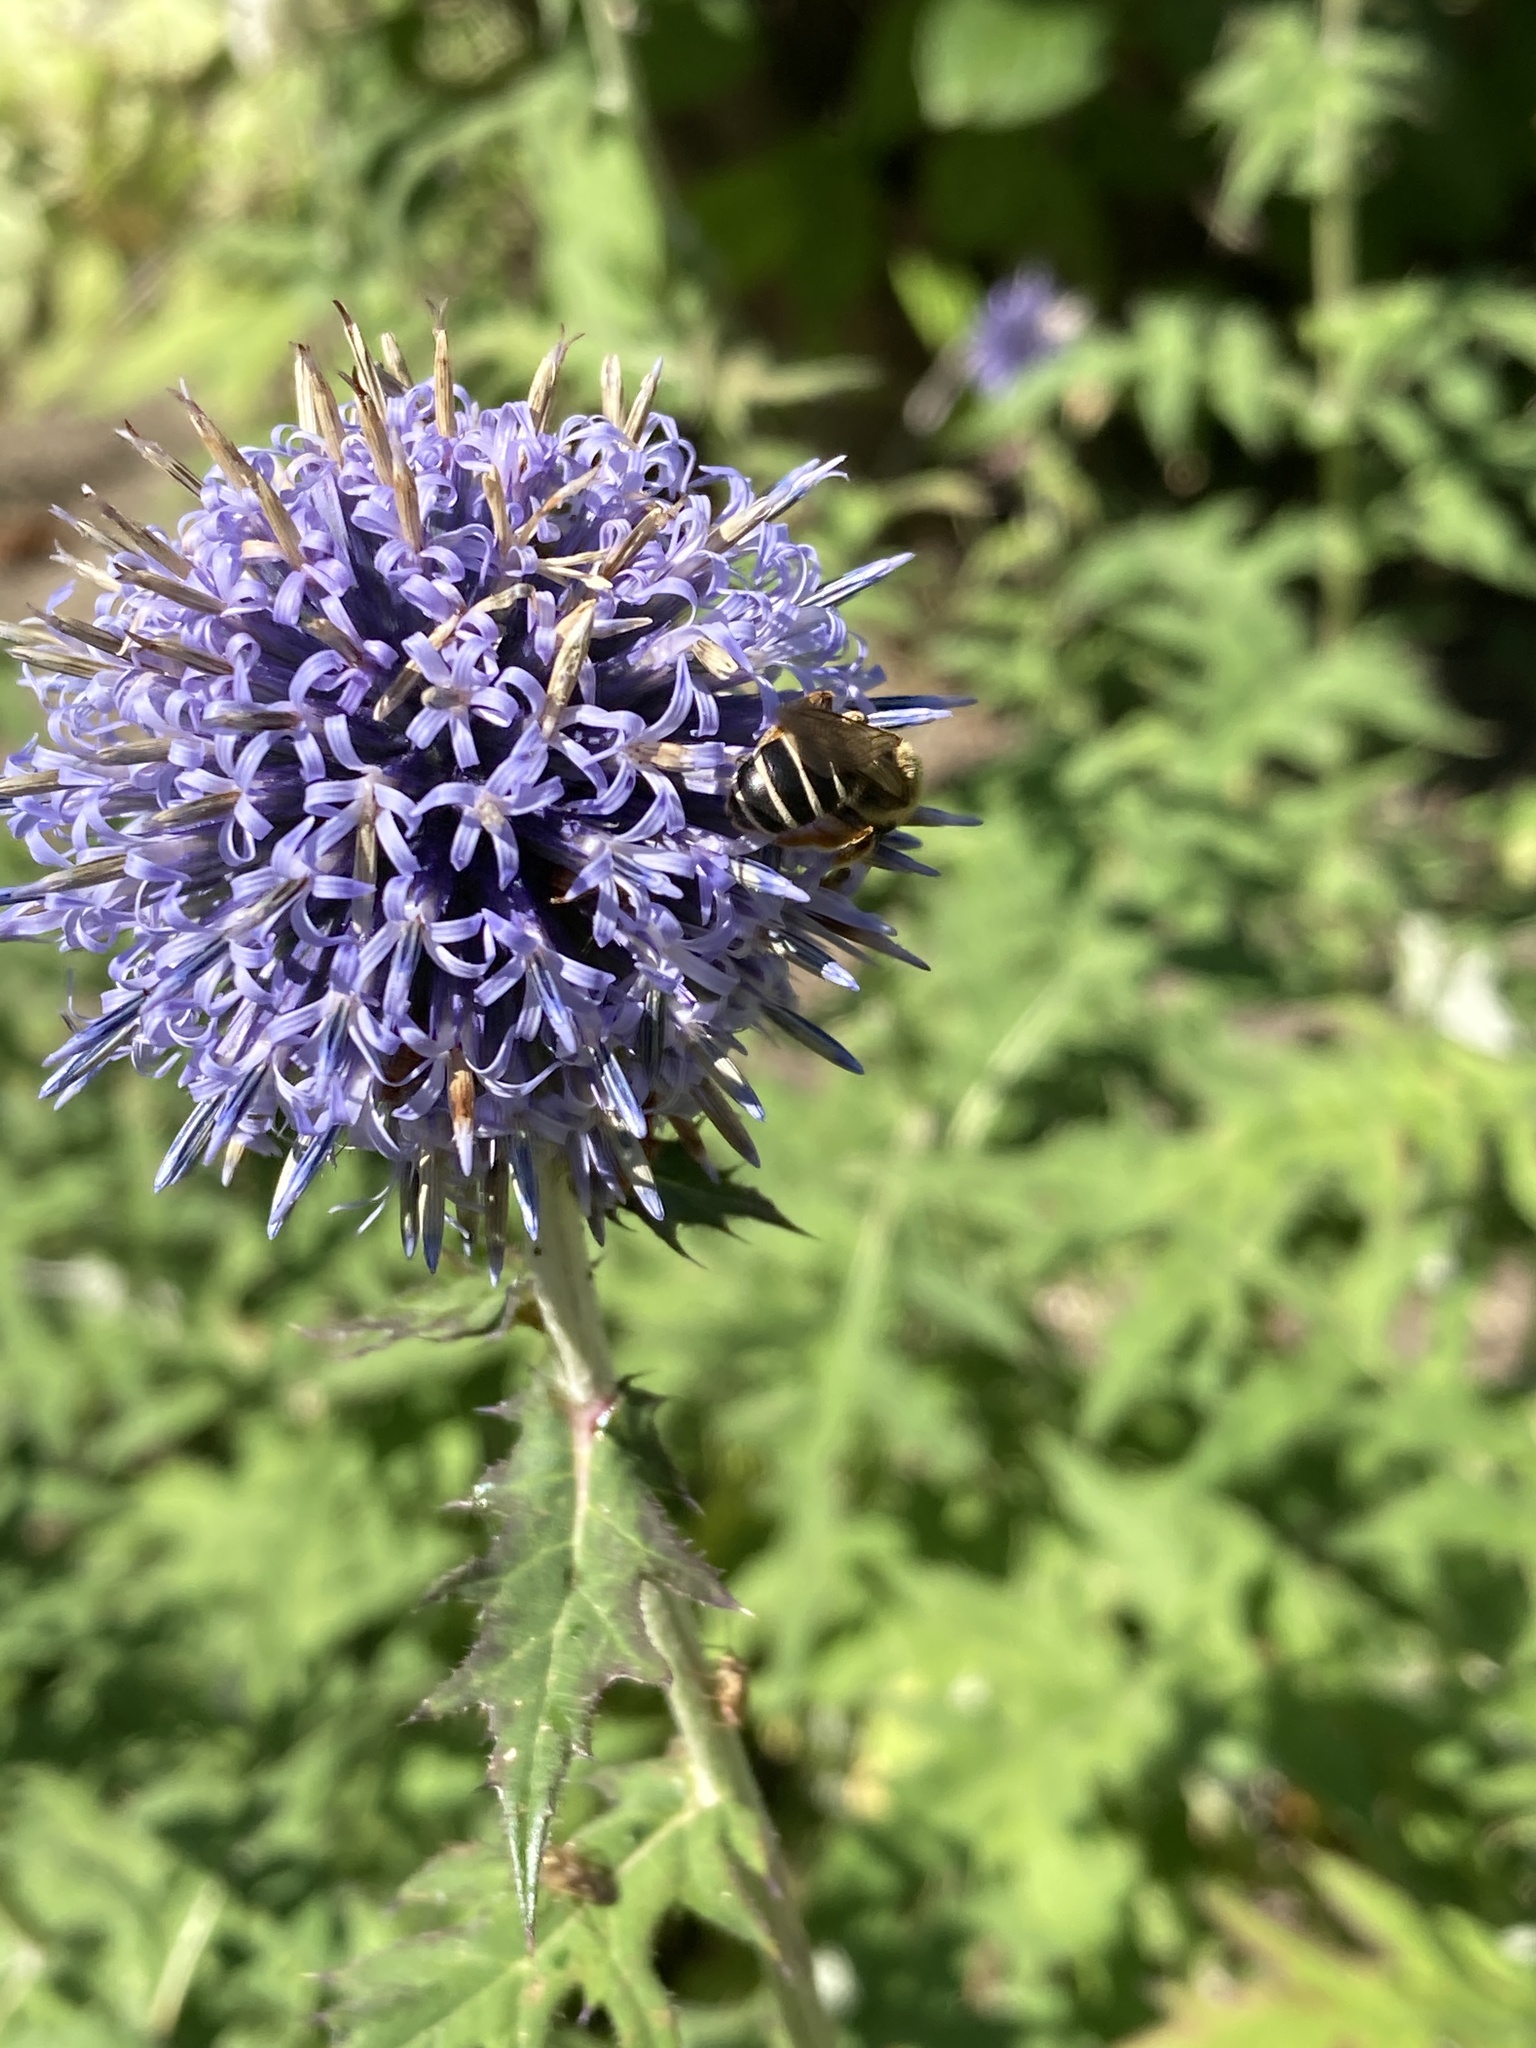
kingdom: Animalia
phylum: Arthropoda
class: Insecta
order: Hymenoptera
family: Halictidae
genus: Halictus
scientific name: Halictus rubicundus
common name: Orange-legged furrow bee
